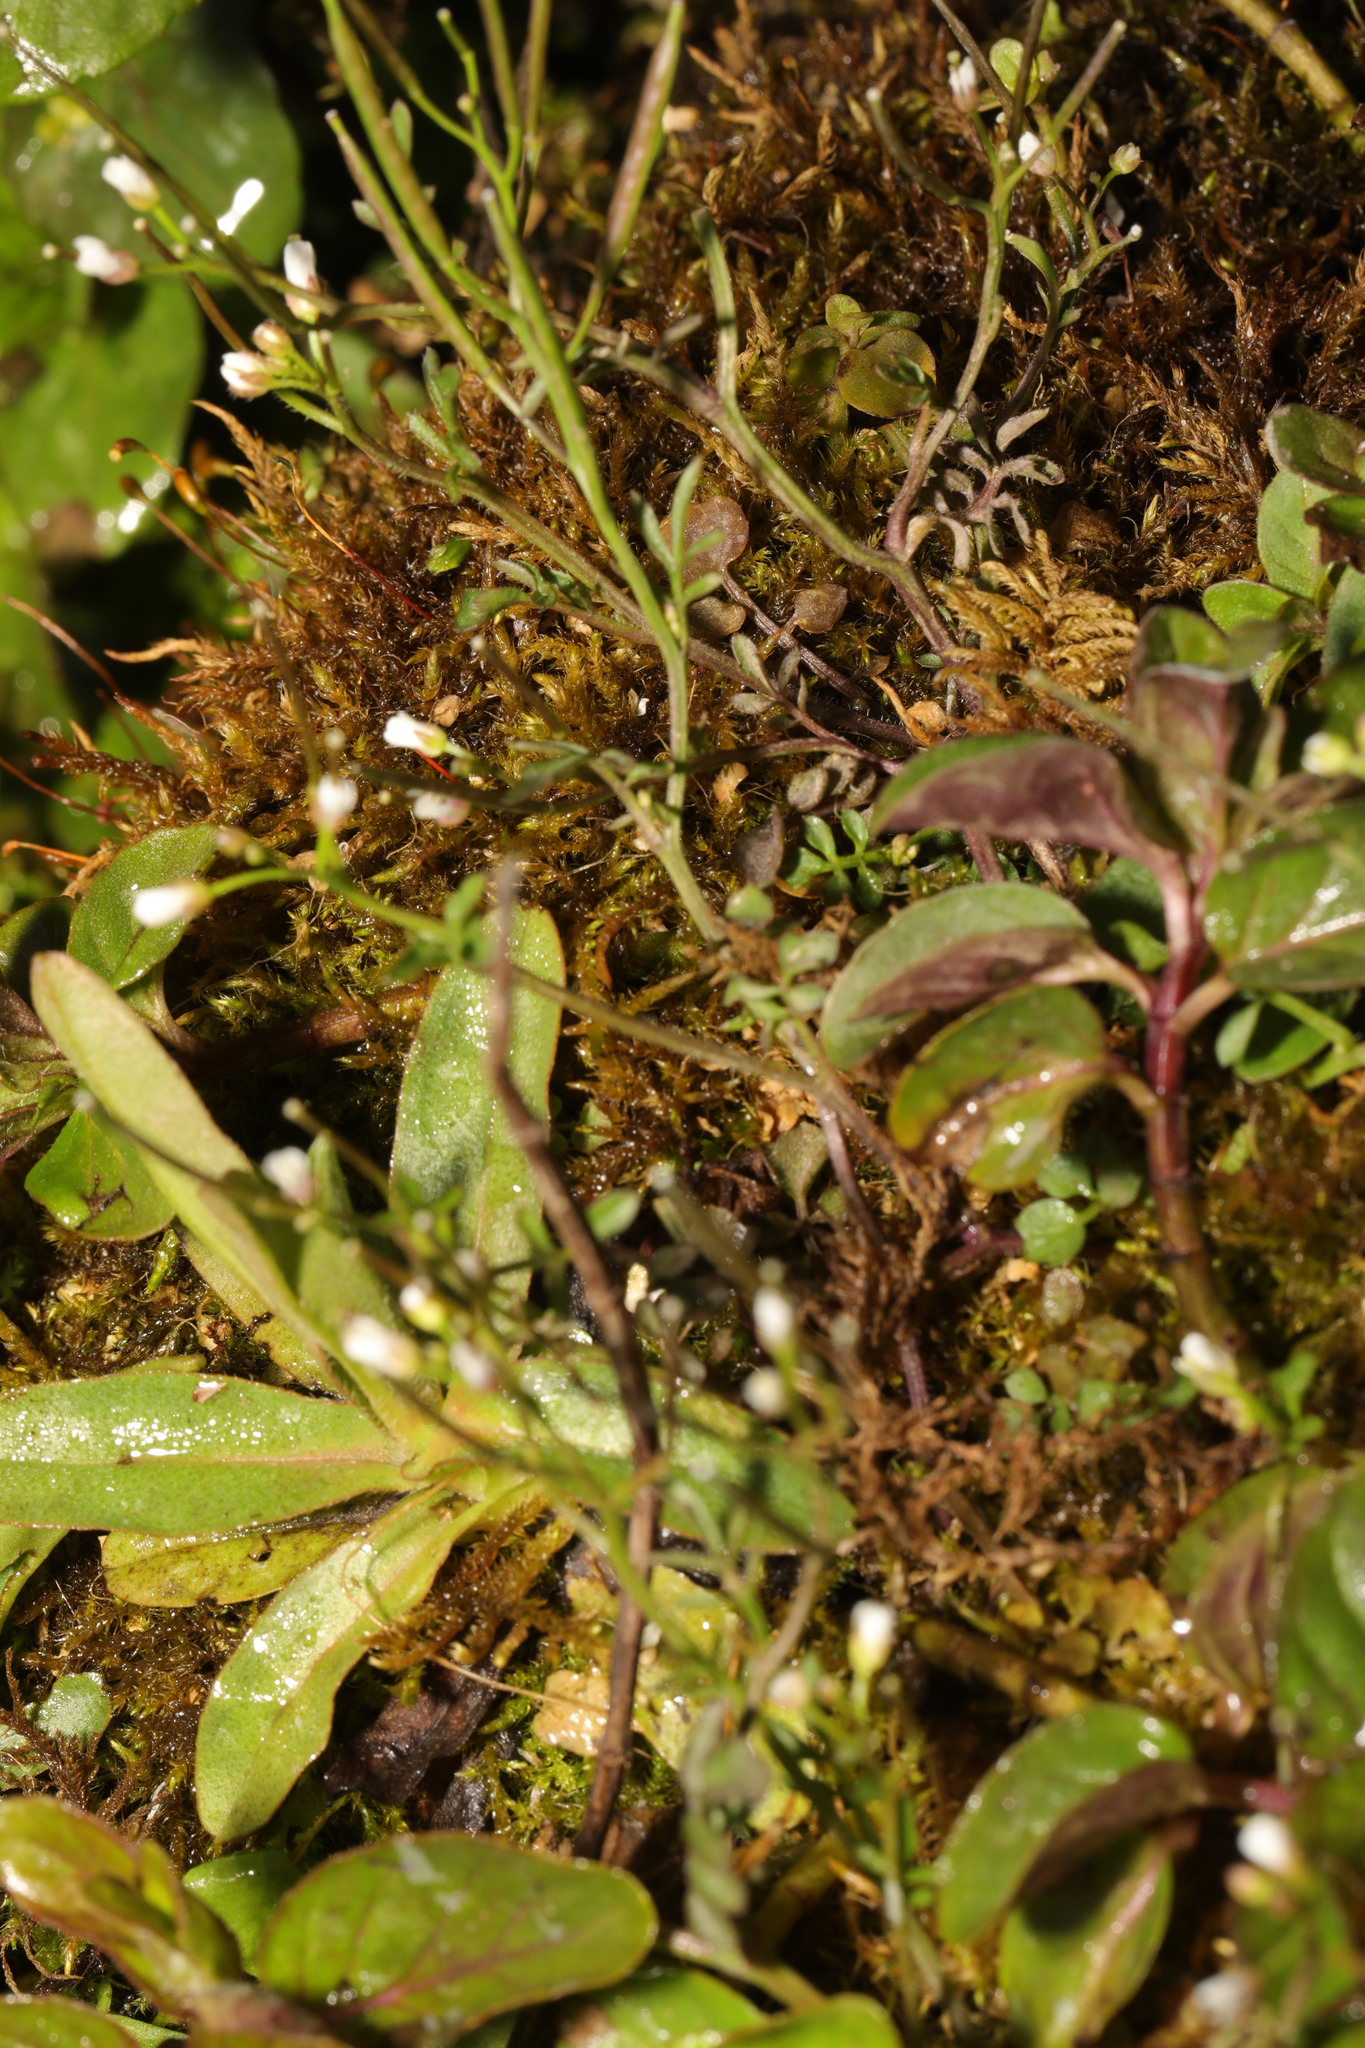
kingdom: Plantae
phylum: Tracheophyta
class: Magnoliopsida
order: Brassicales
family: Brassicaceae
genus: Cardamine
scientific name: Cardamine hirsuta
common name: Hairy bittercress
